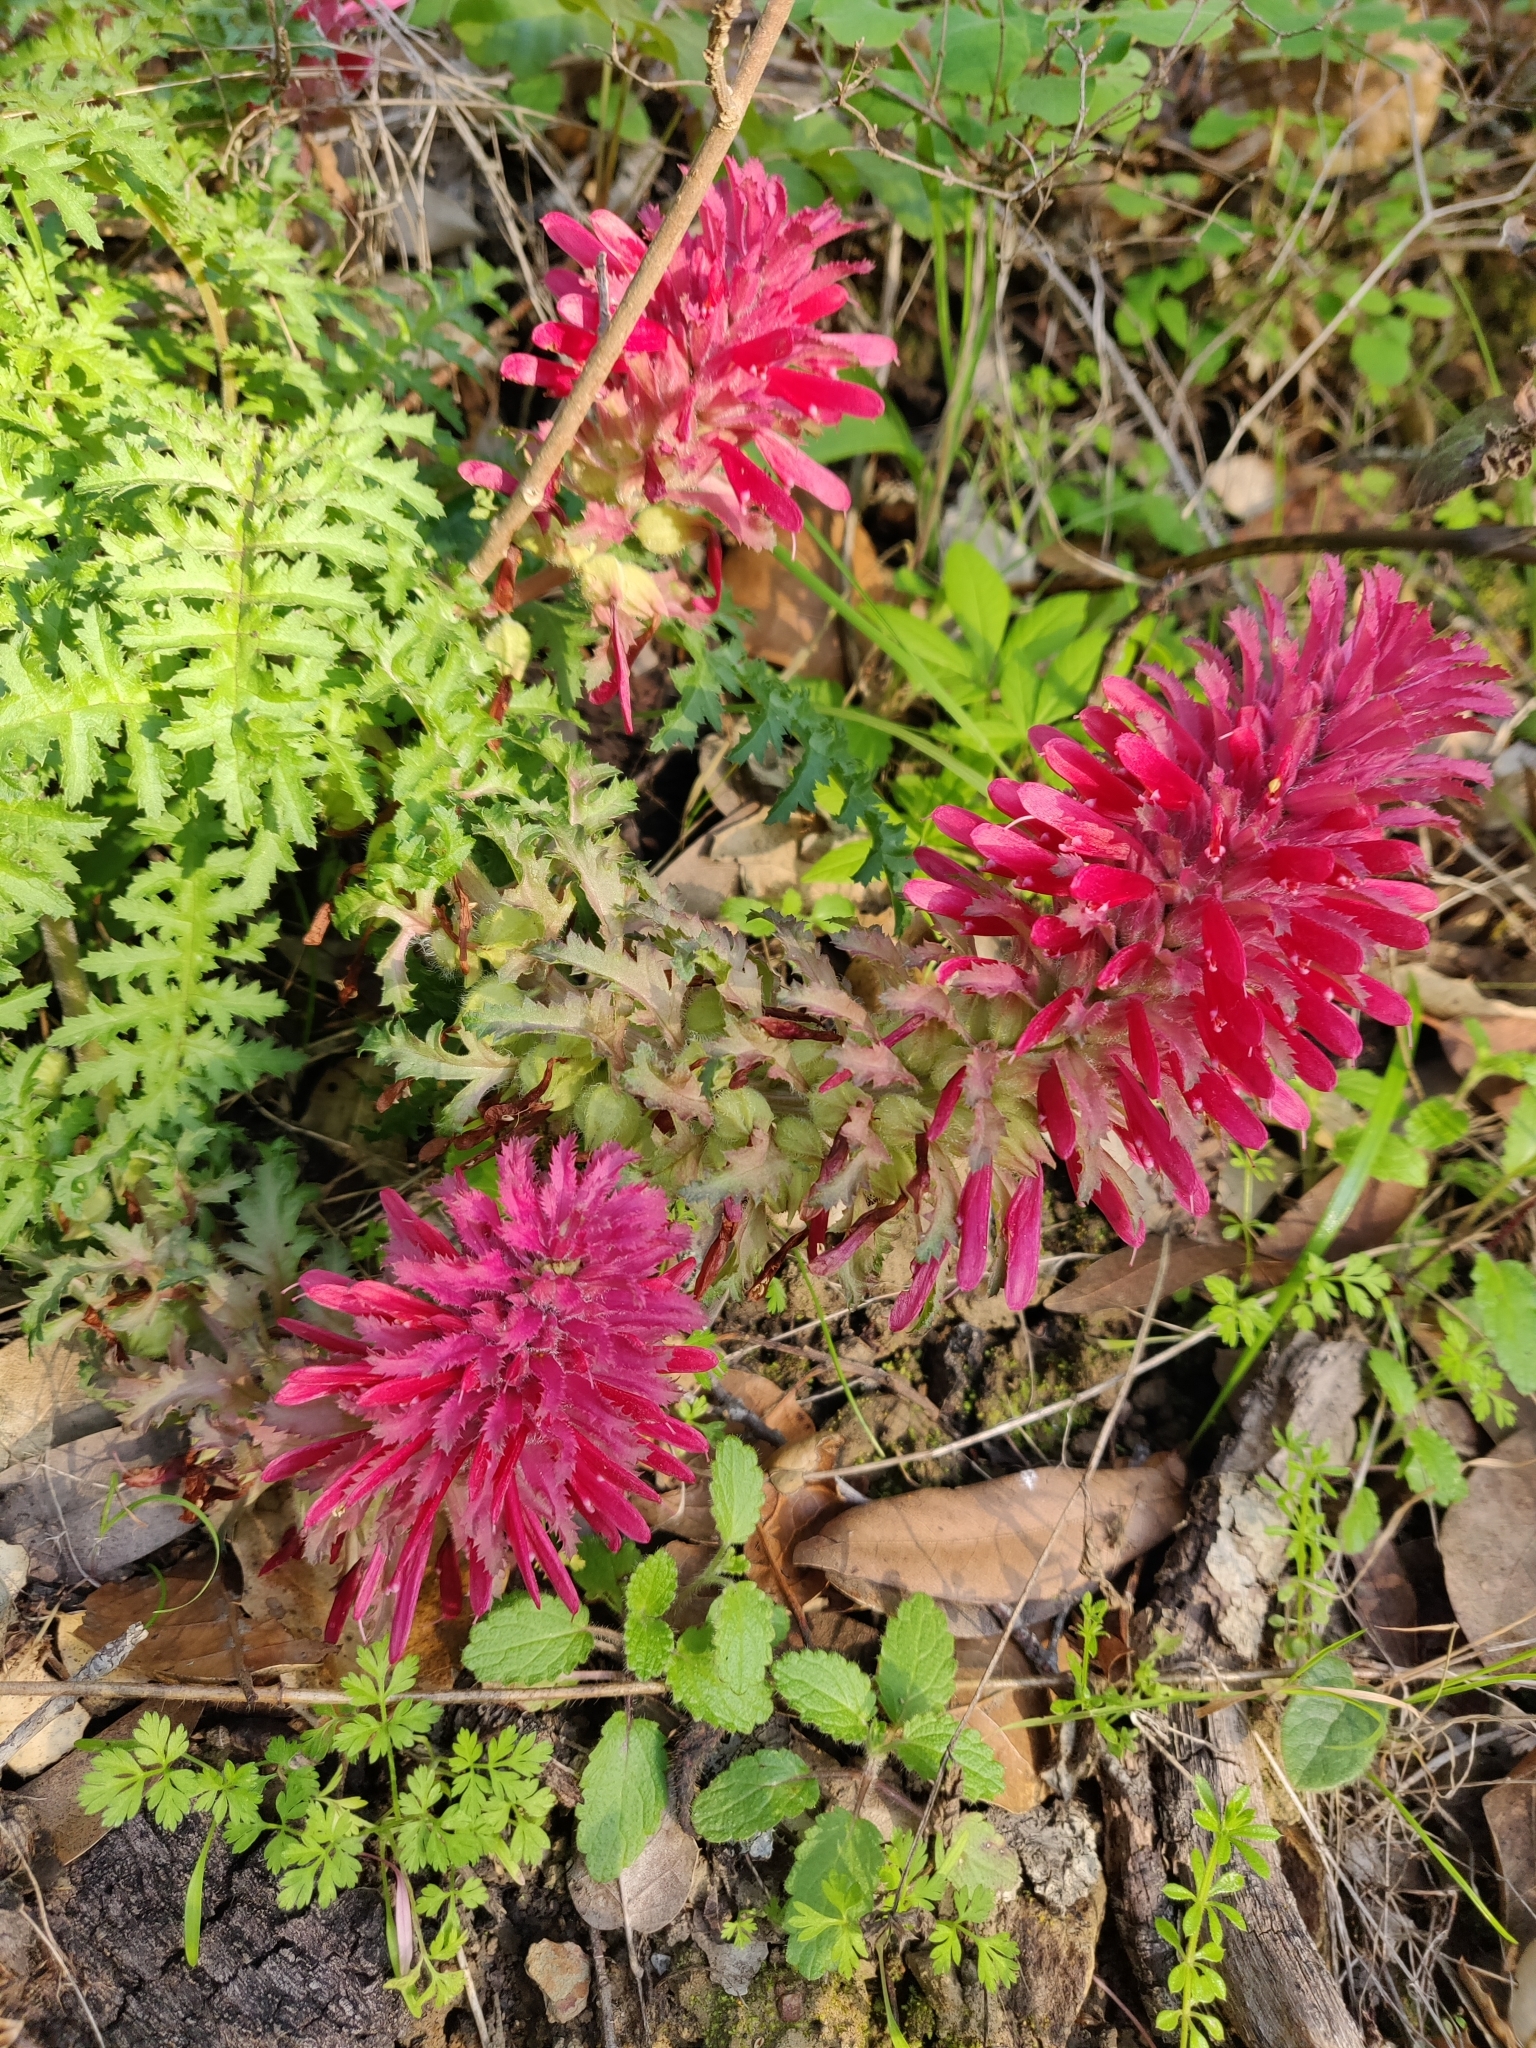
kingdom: Plantae
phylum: Tracheophyta
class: Magnoliopsida
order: Lamiales
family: Orobanchaceae
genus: Pedicularis
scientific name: Pedicularis densiflora
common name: Indian warrior
